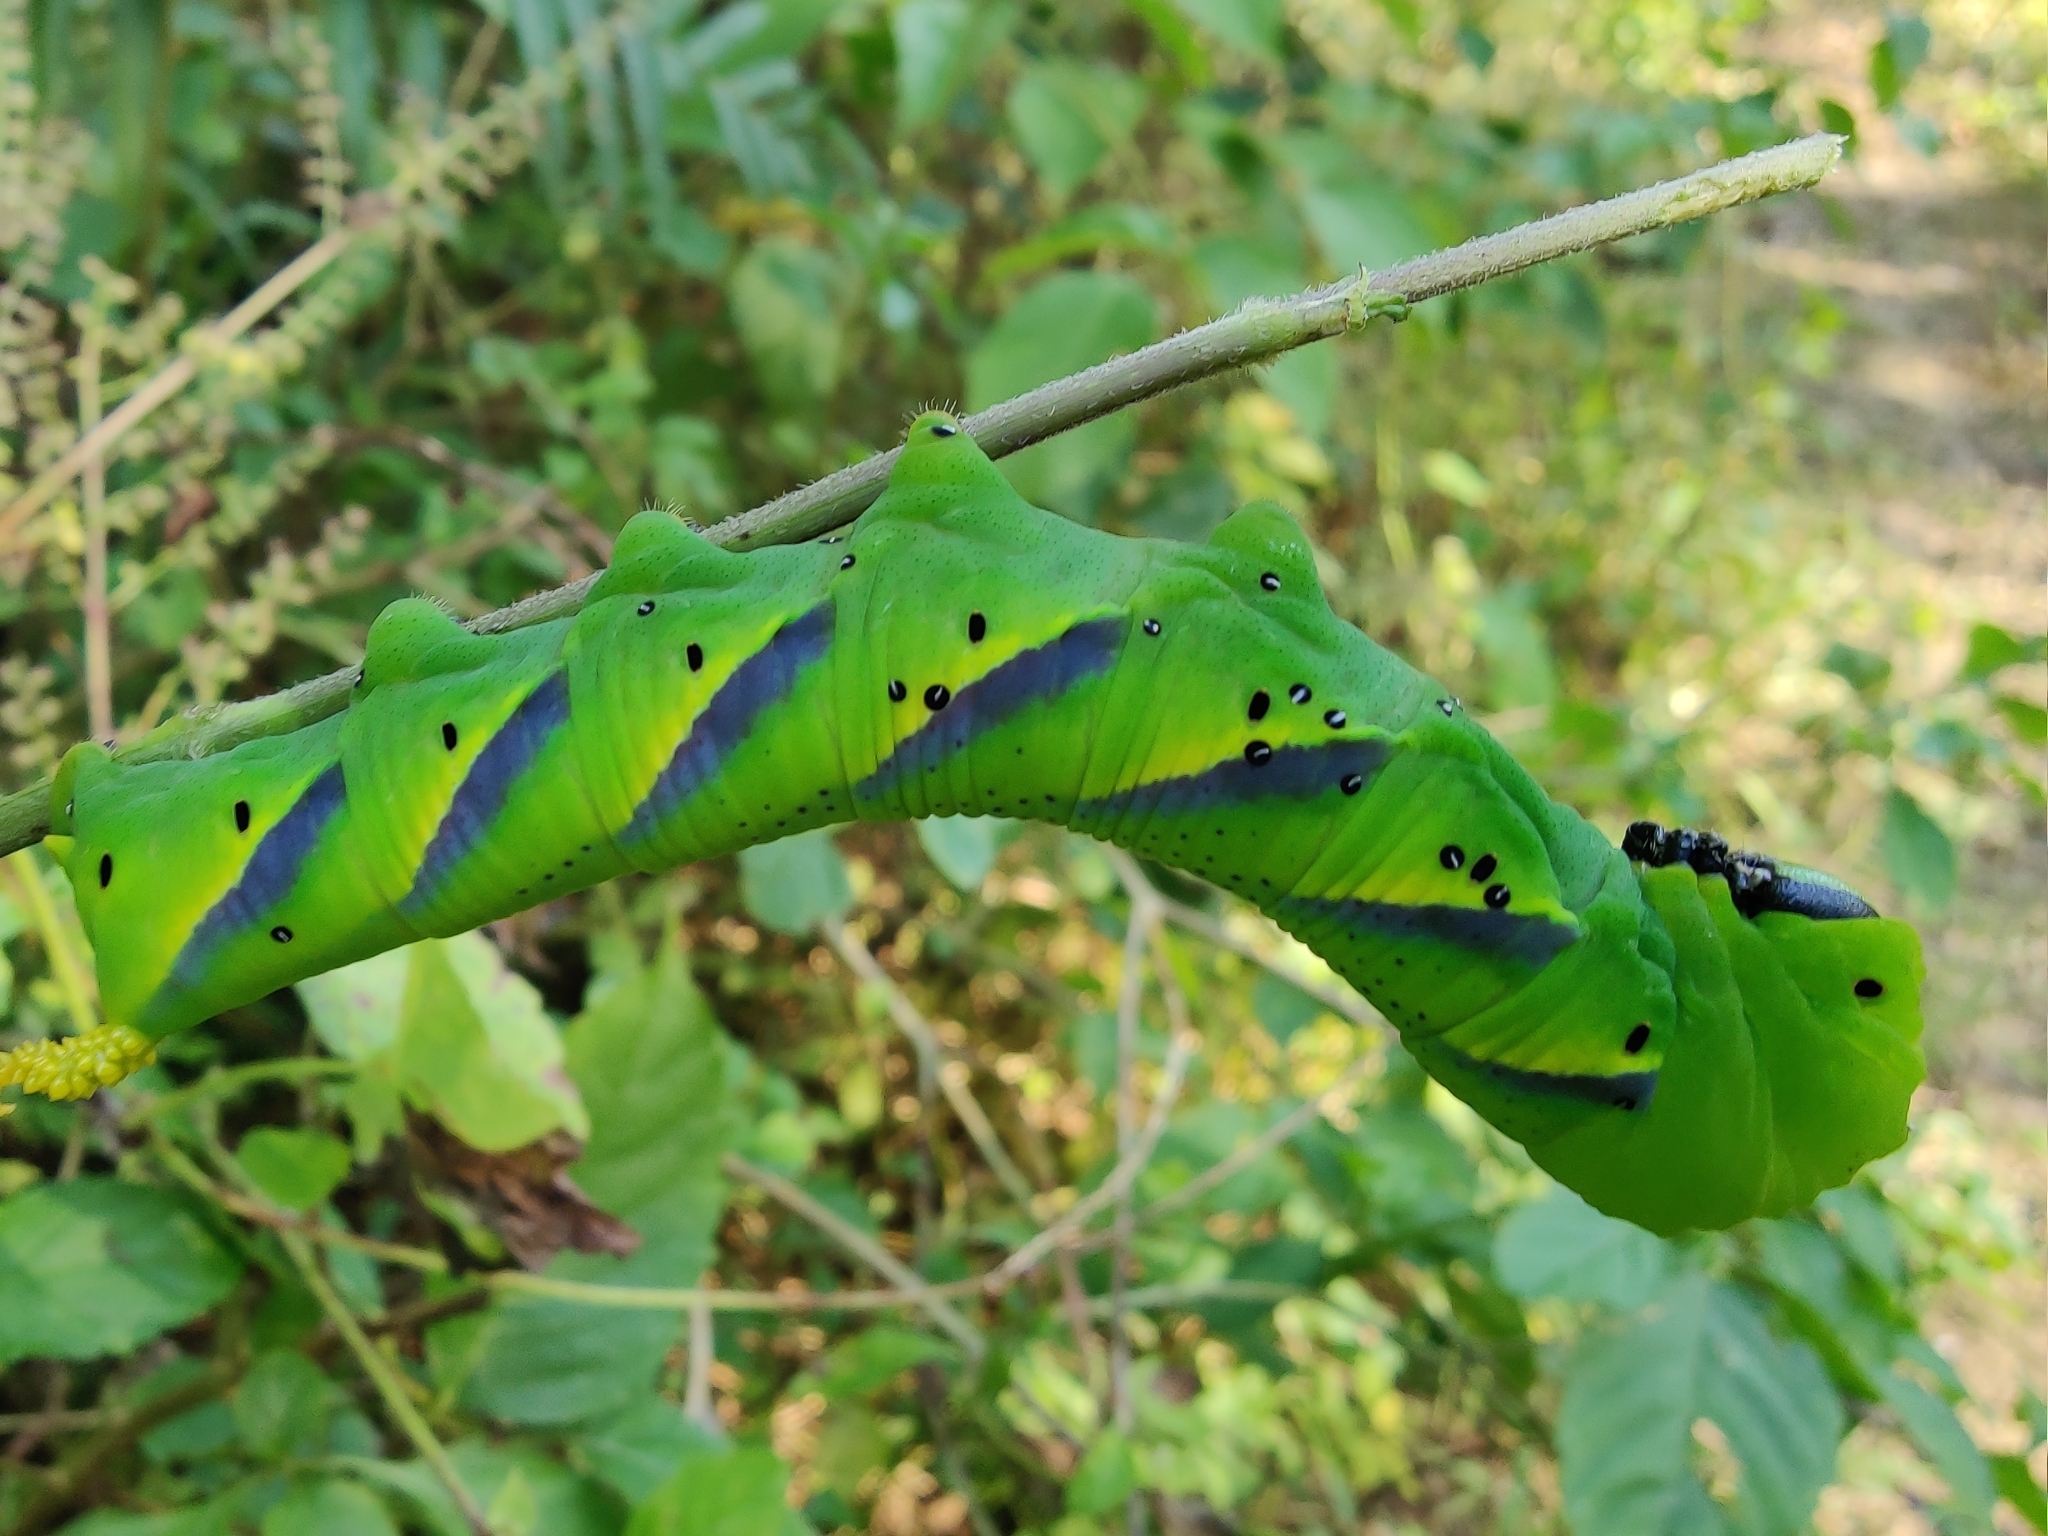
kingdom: Animalia
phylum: Arthropoda
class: Insecta
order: Lepidoptera
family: Sphingidae
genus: Acherontia
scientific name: Acherontia lachesis
